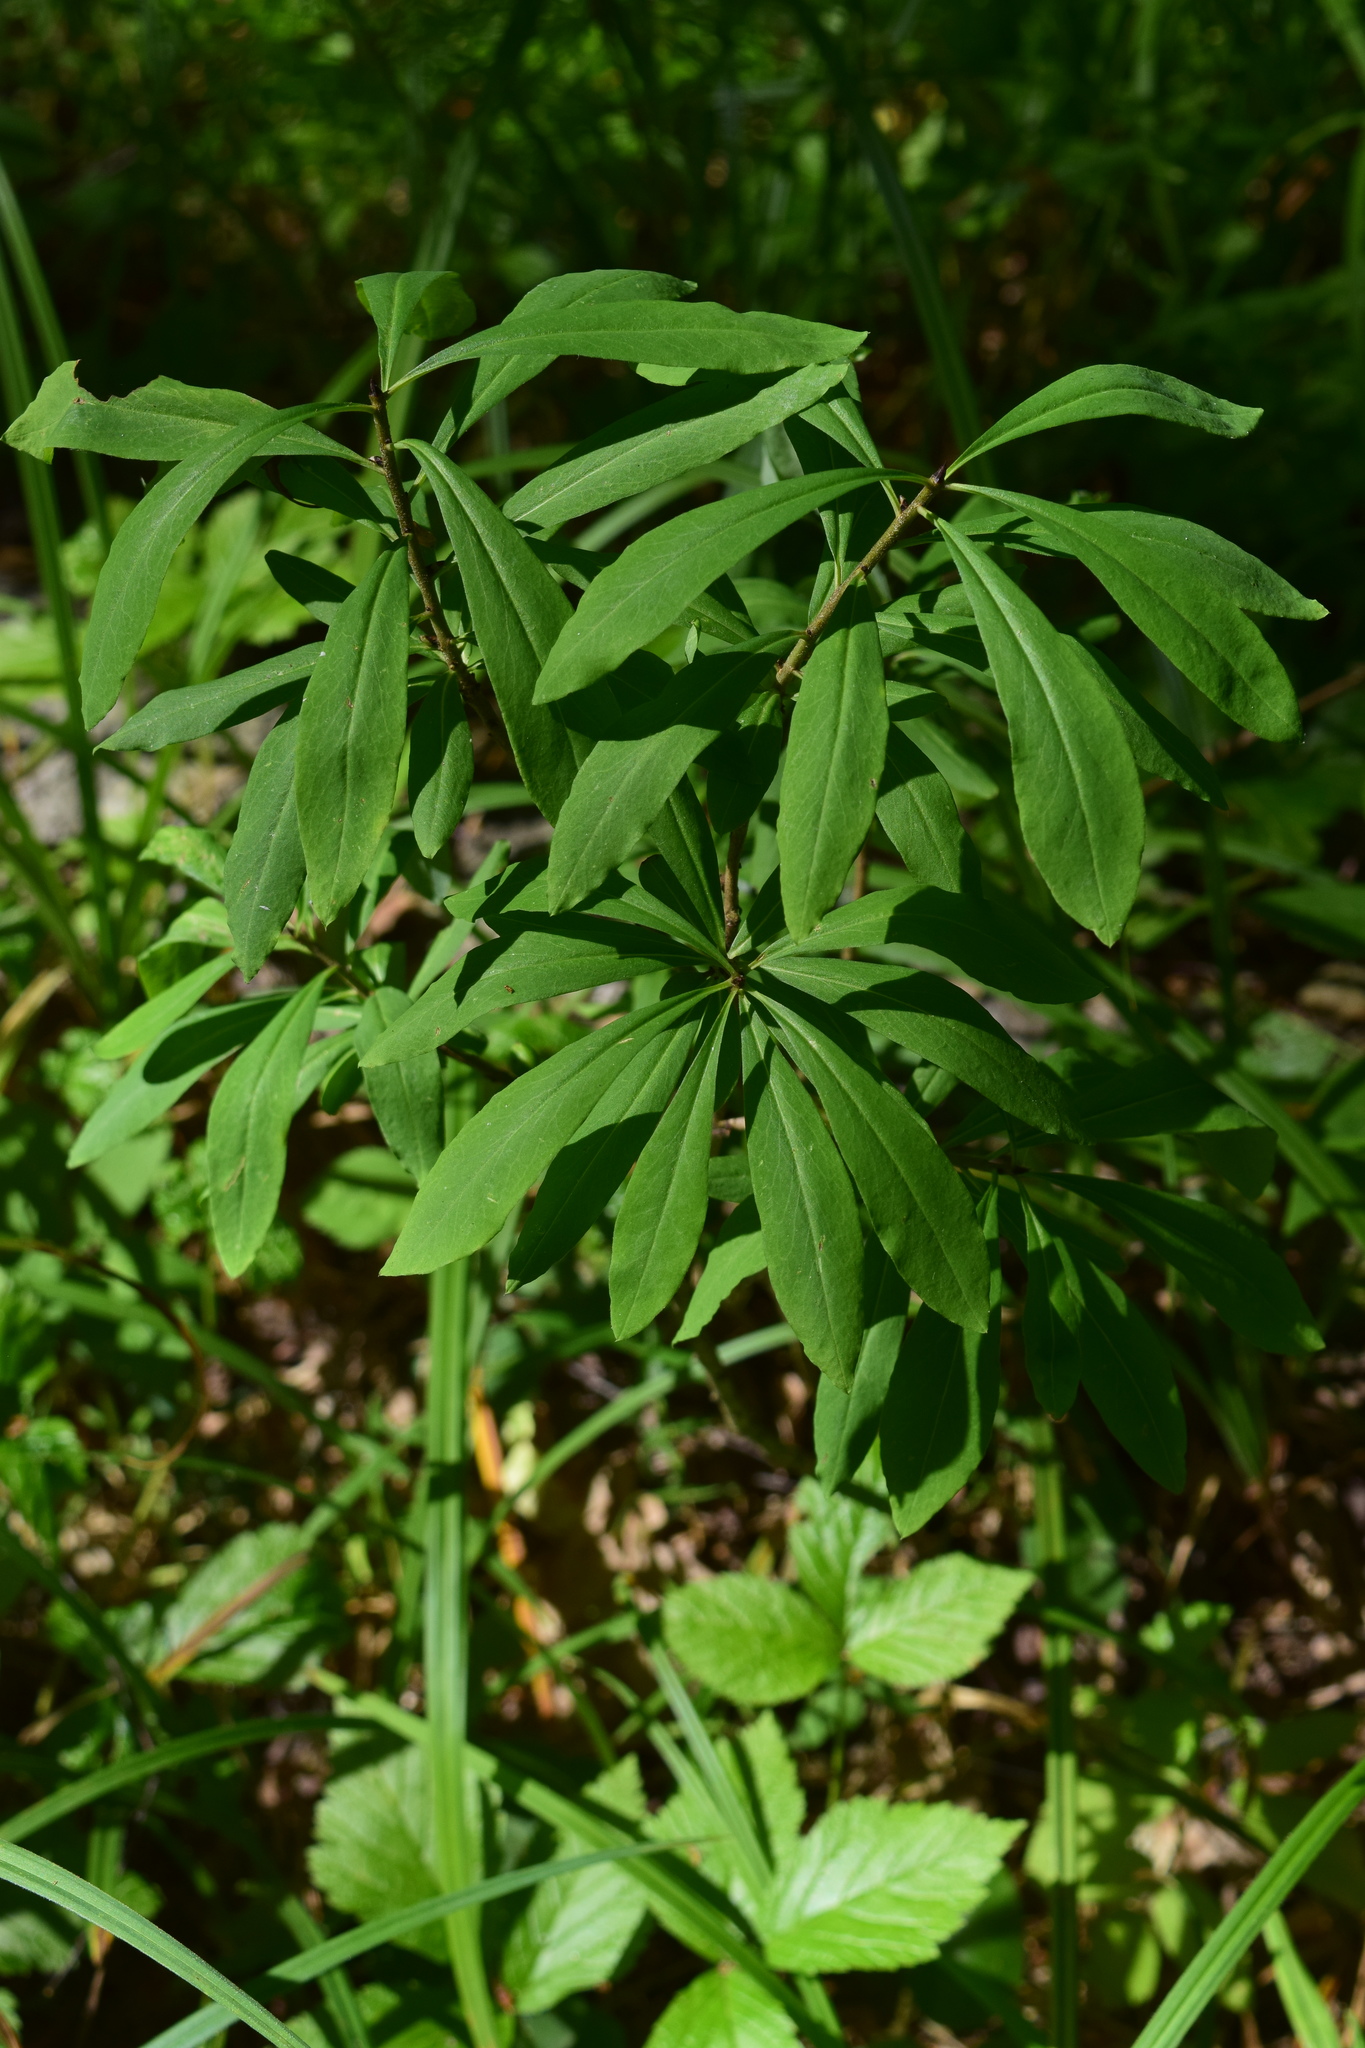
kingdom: Plantae
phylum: Tracheophyta
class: Magnoliopsida
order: Malvales
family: Thymelaeaceae
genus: Daphne
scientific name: Daphne mezereum
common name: Mezereon
